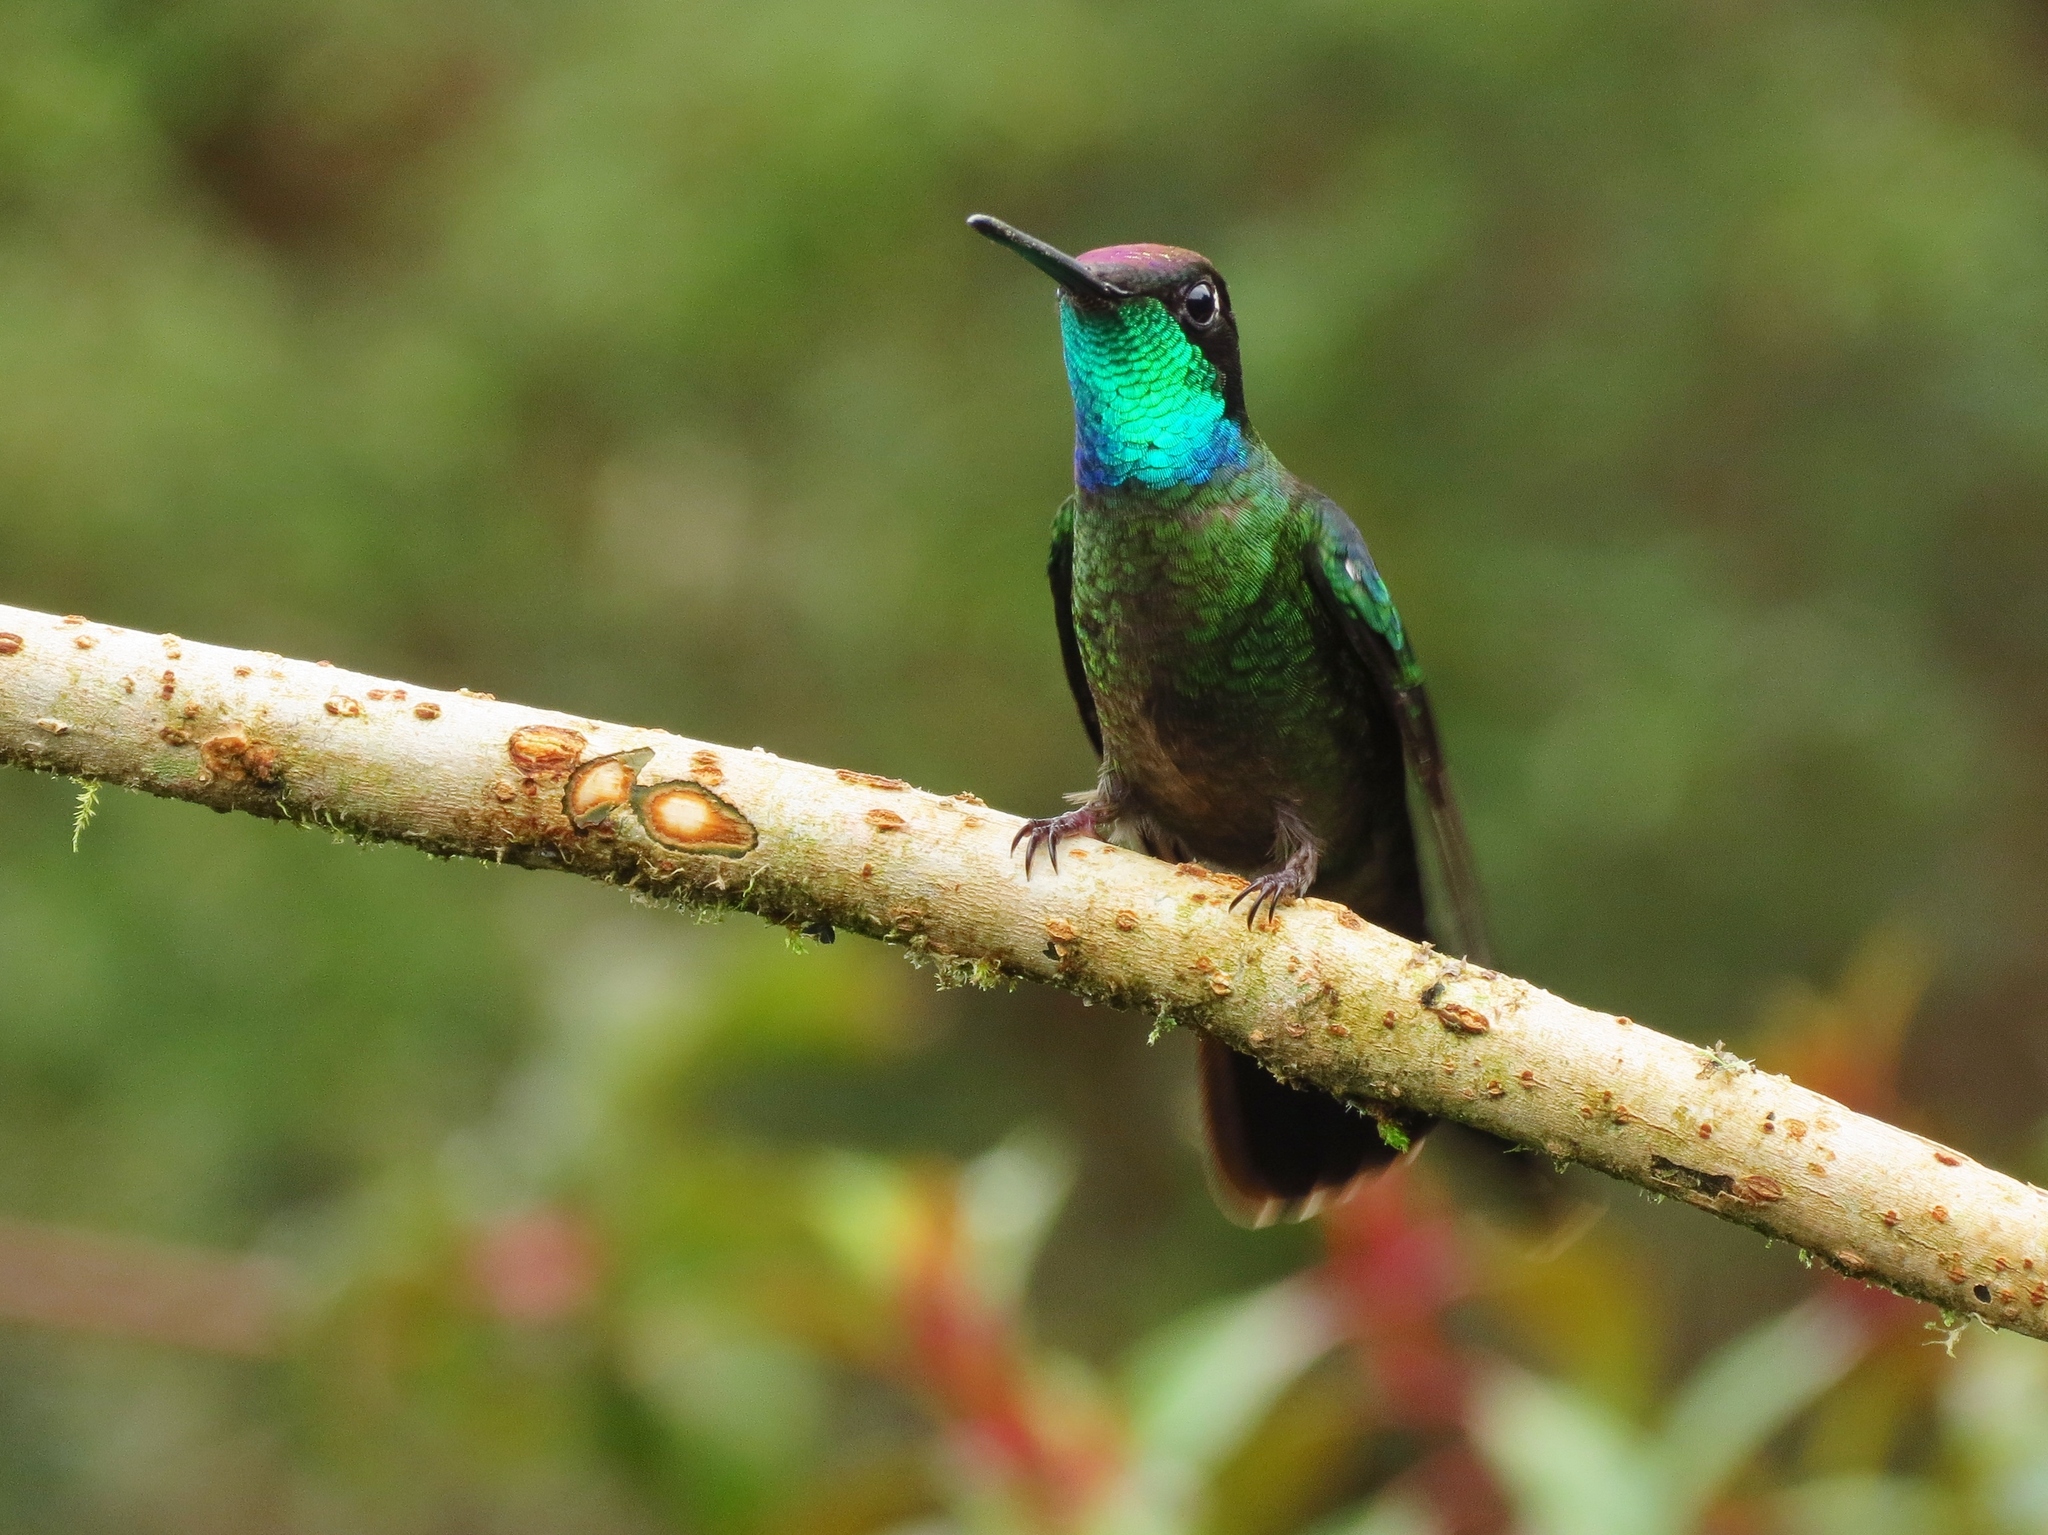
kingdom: Animalia
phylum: Chordata
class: Aves
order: Apodiformes
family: Trochilidae
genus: Eugenes
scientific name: Eugenes spectabilis
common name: Talamanca hummingbird
